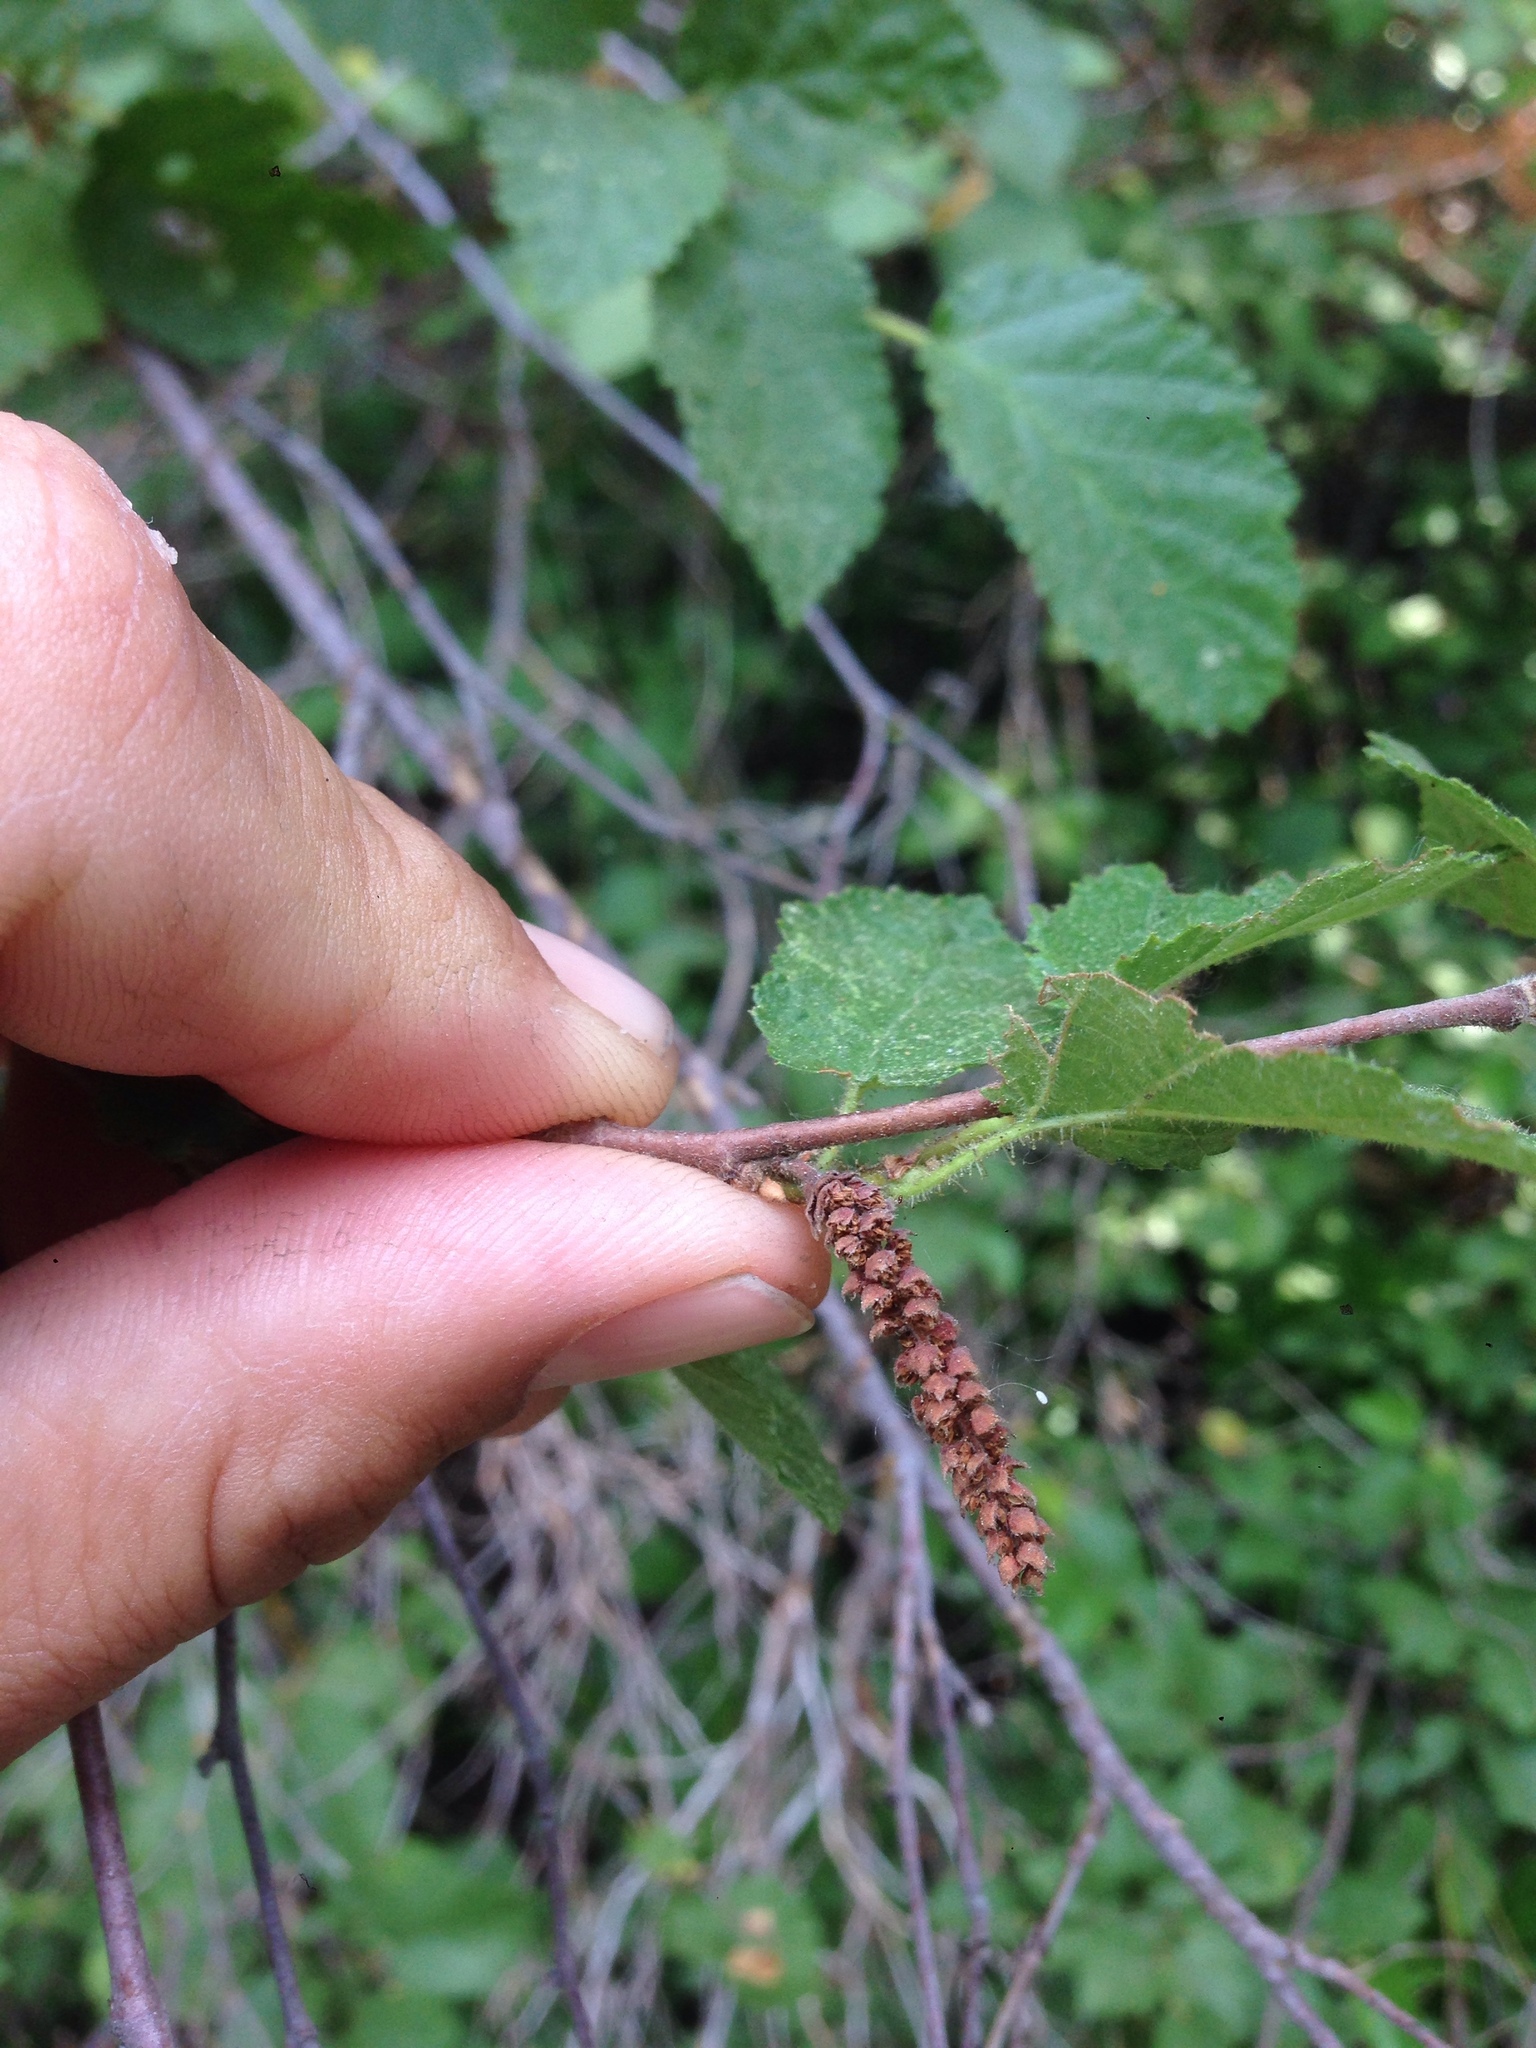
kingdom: Plantae
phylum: Tracheophyta
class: Magnoliopsida
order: Fagales
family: Betulaceae
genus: Corylus
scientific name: Corylus cornuta
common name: Beaked hazel
